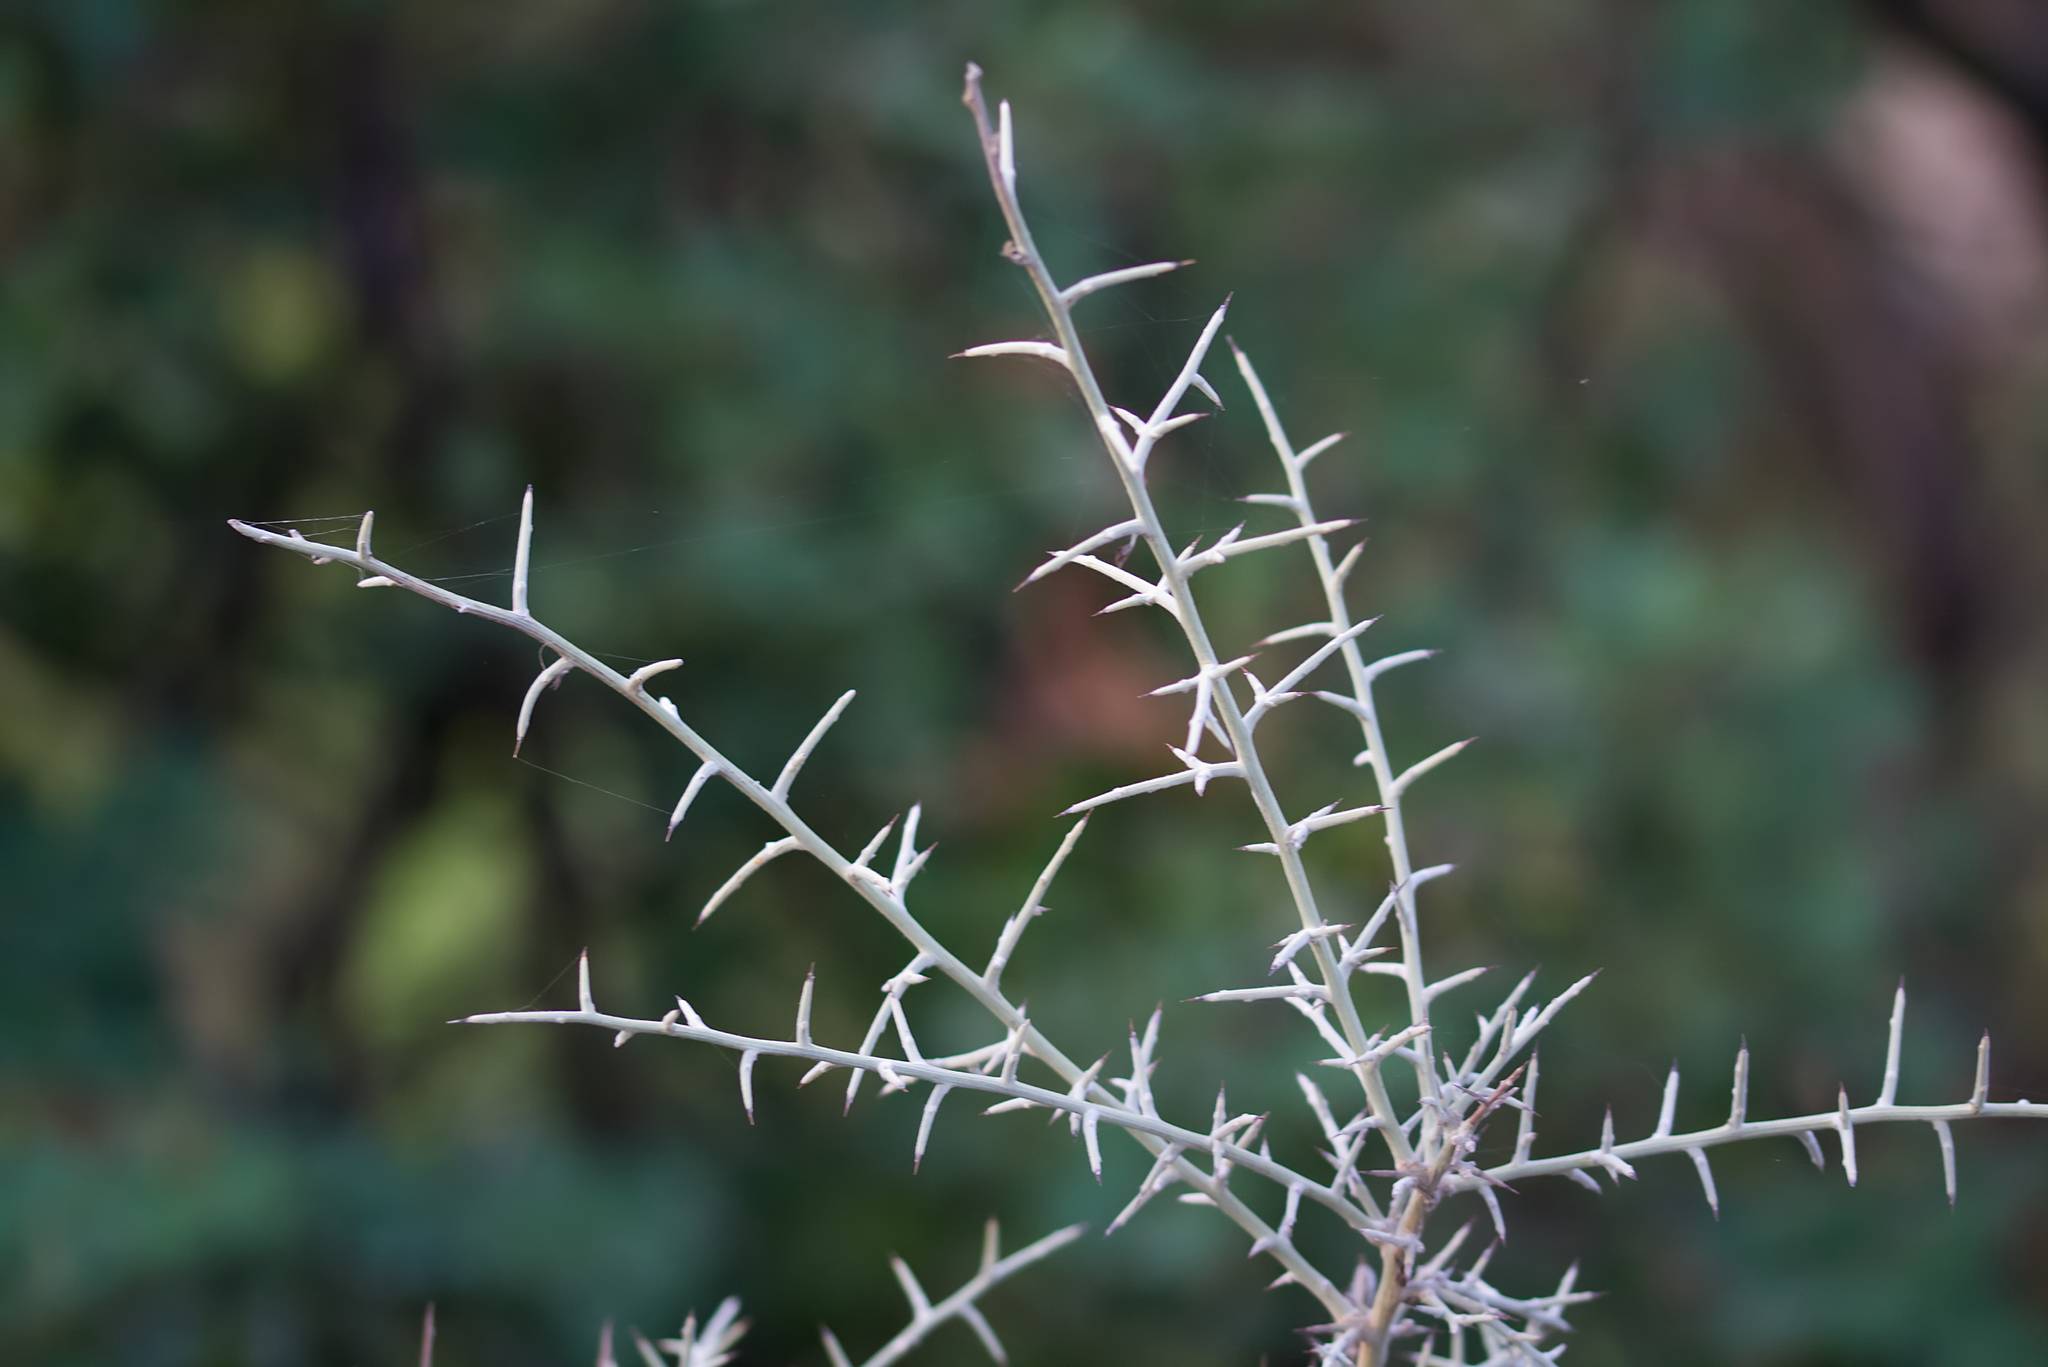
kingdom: Plantae
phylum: Tracheophyta
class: Magnoliopsida
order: Fabales
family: Fabaceae
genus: Calicotome
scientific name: Calicotome villosa
